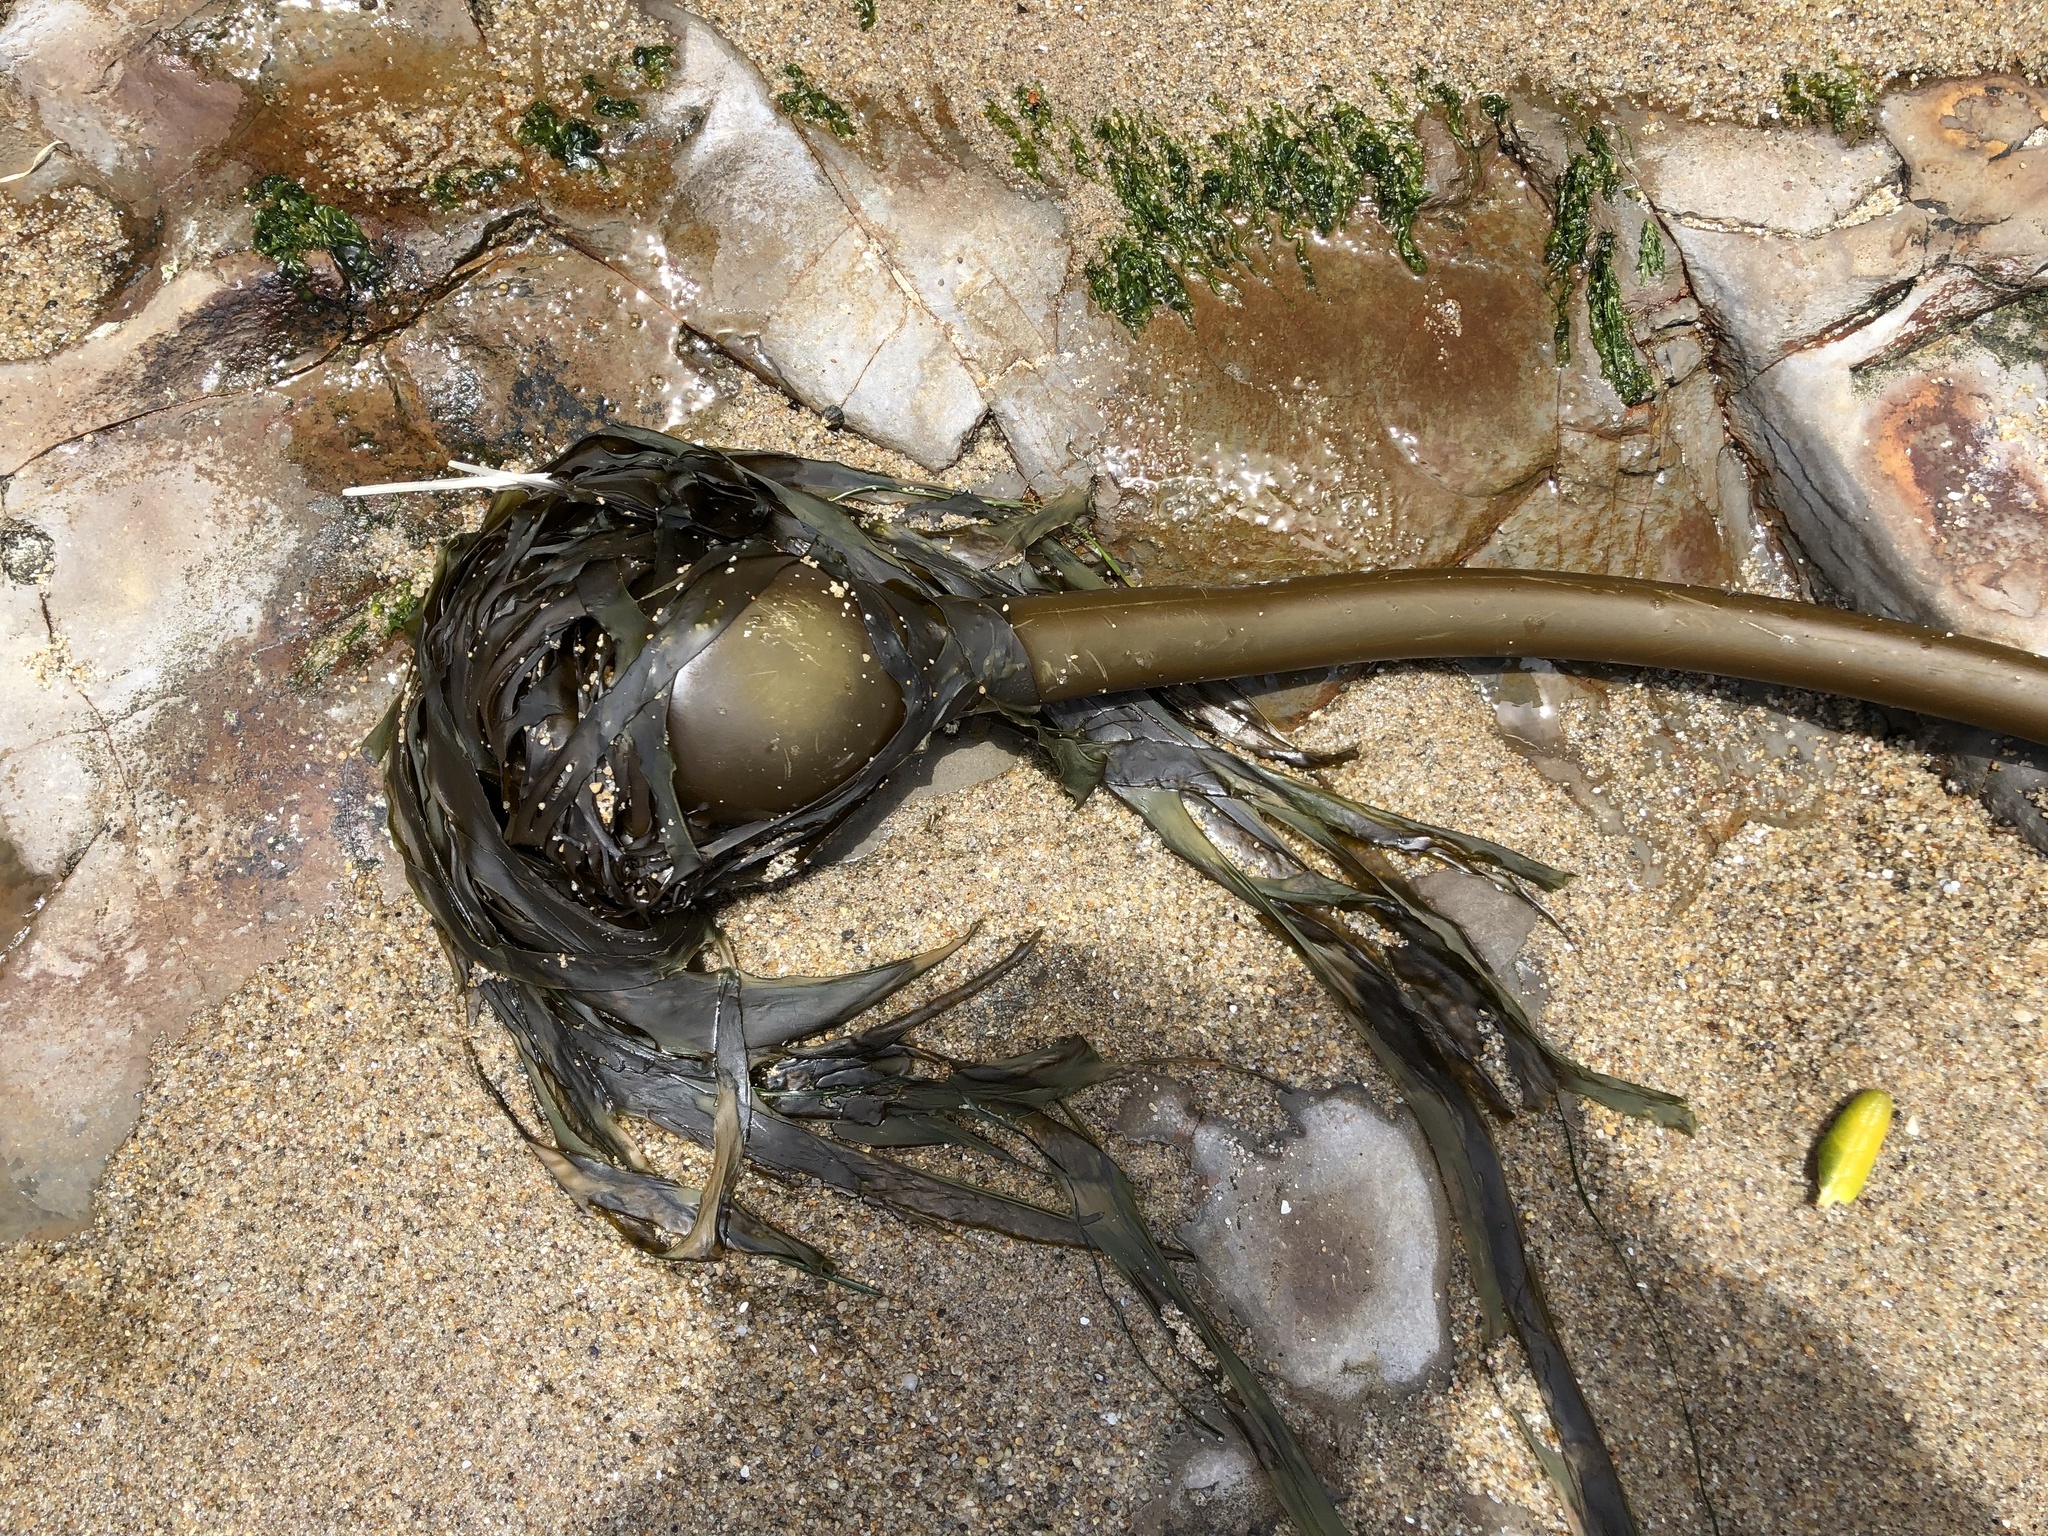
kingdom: Chromista
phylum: Ochrophyta
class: Phaeophyceae
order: Laminariales
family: Laminariaceae
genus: Nereocystis
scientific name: Nereocystis luetkeana
